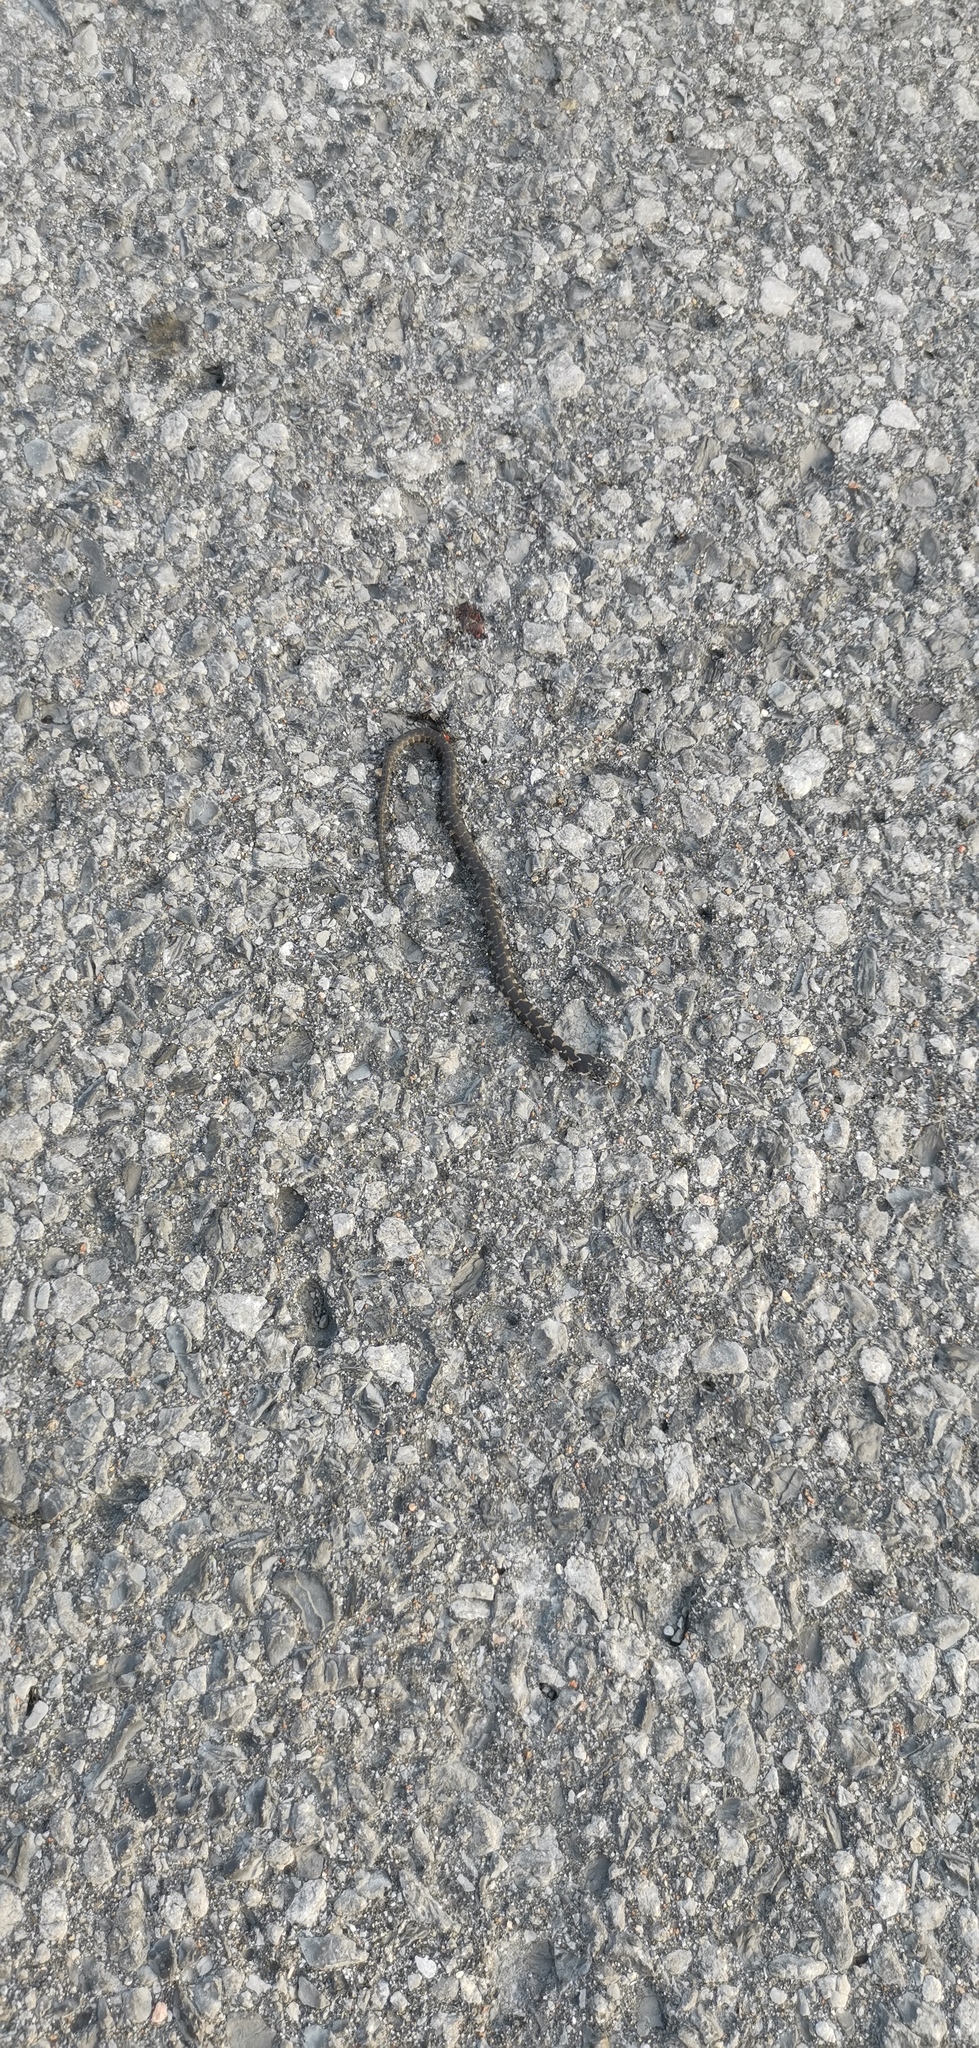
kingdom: Animalia
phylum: Chordata
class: Squamata
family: Colubridae
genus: Nerodia
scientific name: Nerodia sipedon
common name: Northern water snake
